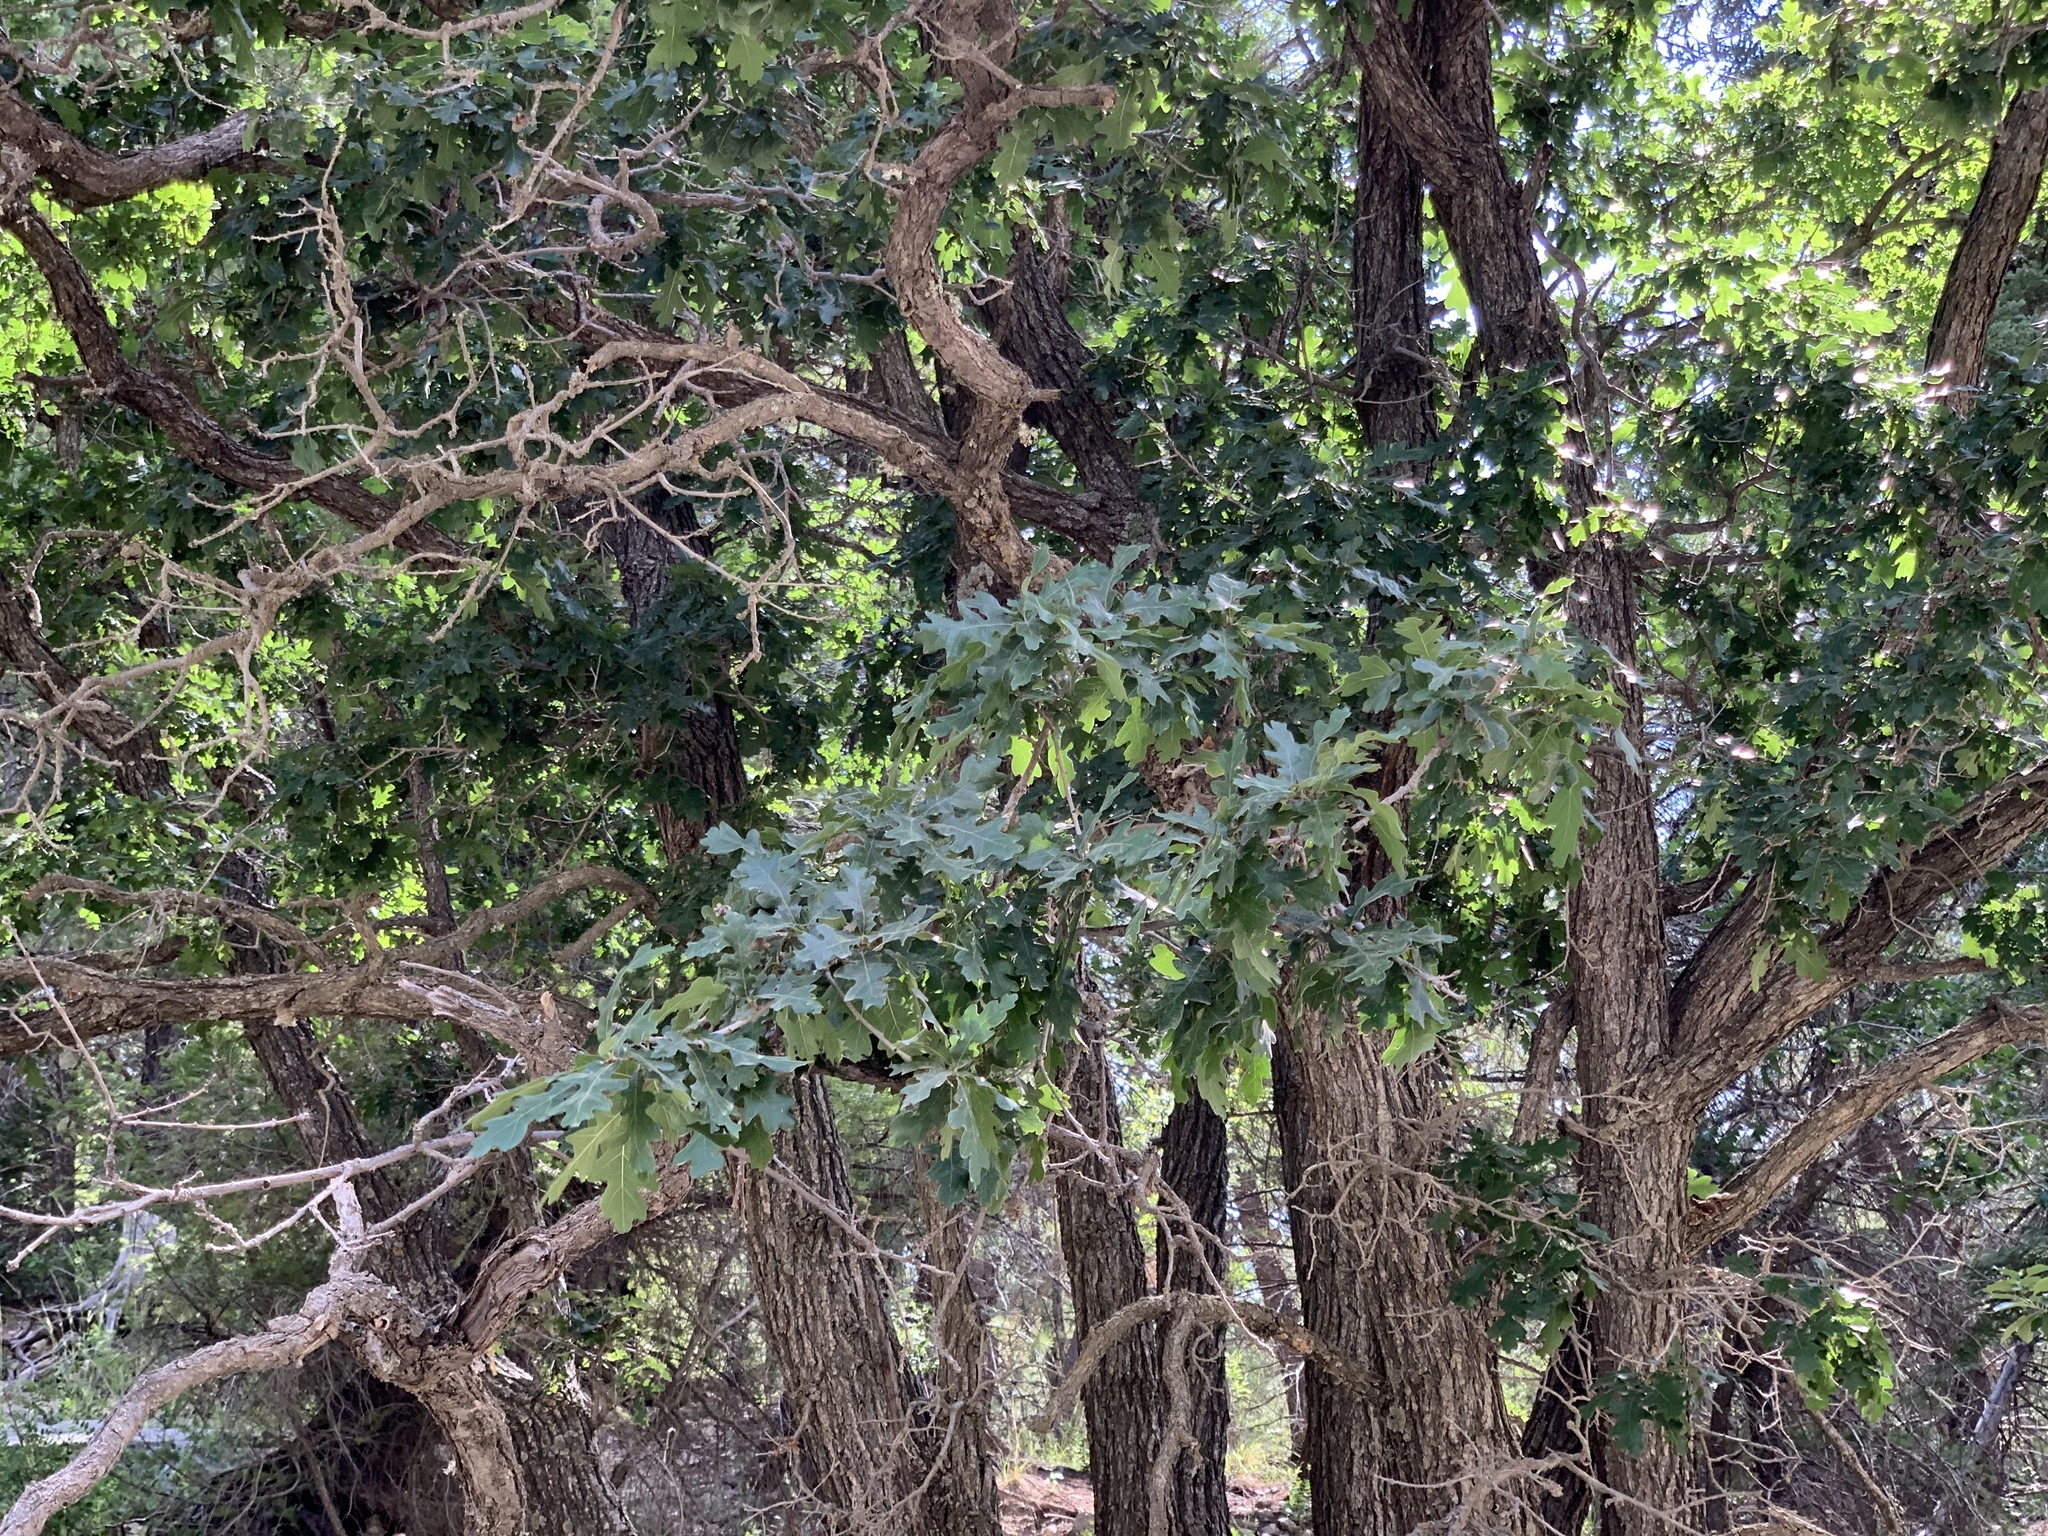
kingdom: Plantae
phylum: Tracheophyta
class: Magnoliopsida
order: Fagales
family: Fagaceae
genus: Quercus
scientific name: Quercus gambelii
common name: Gambel oak
